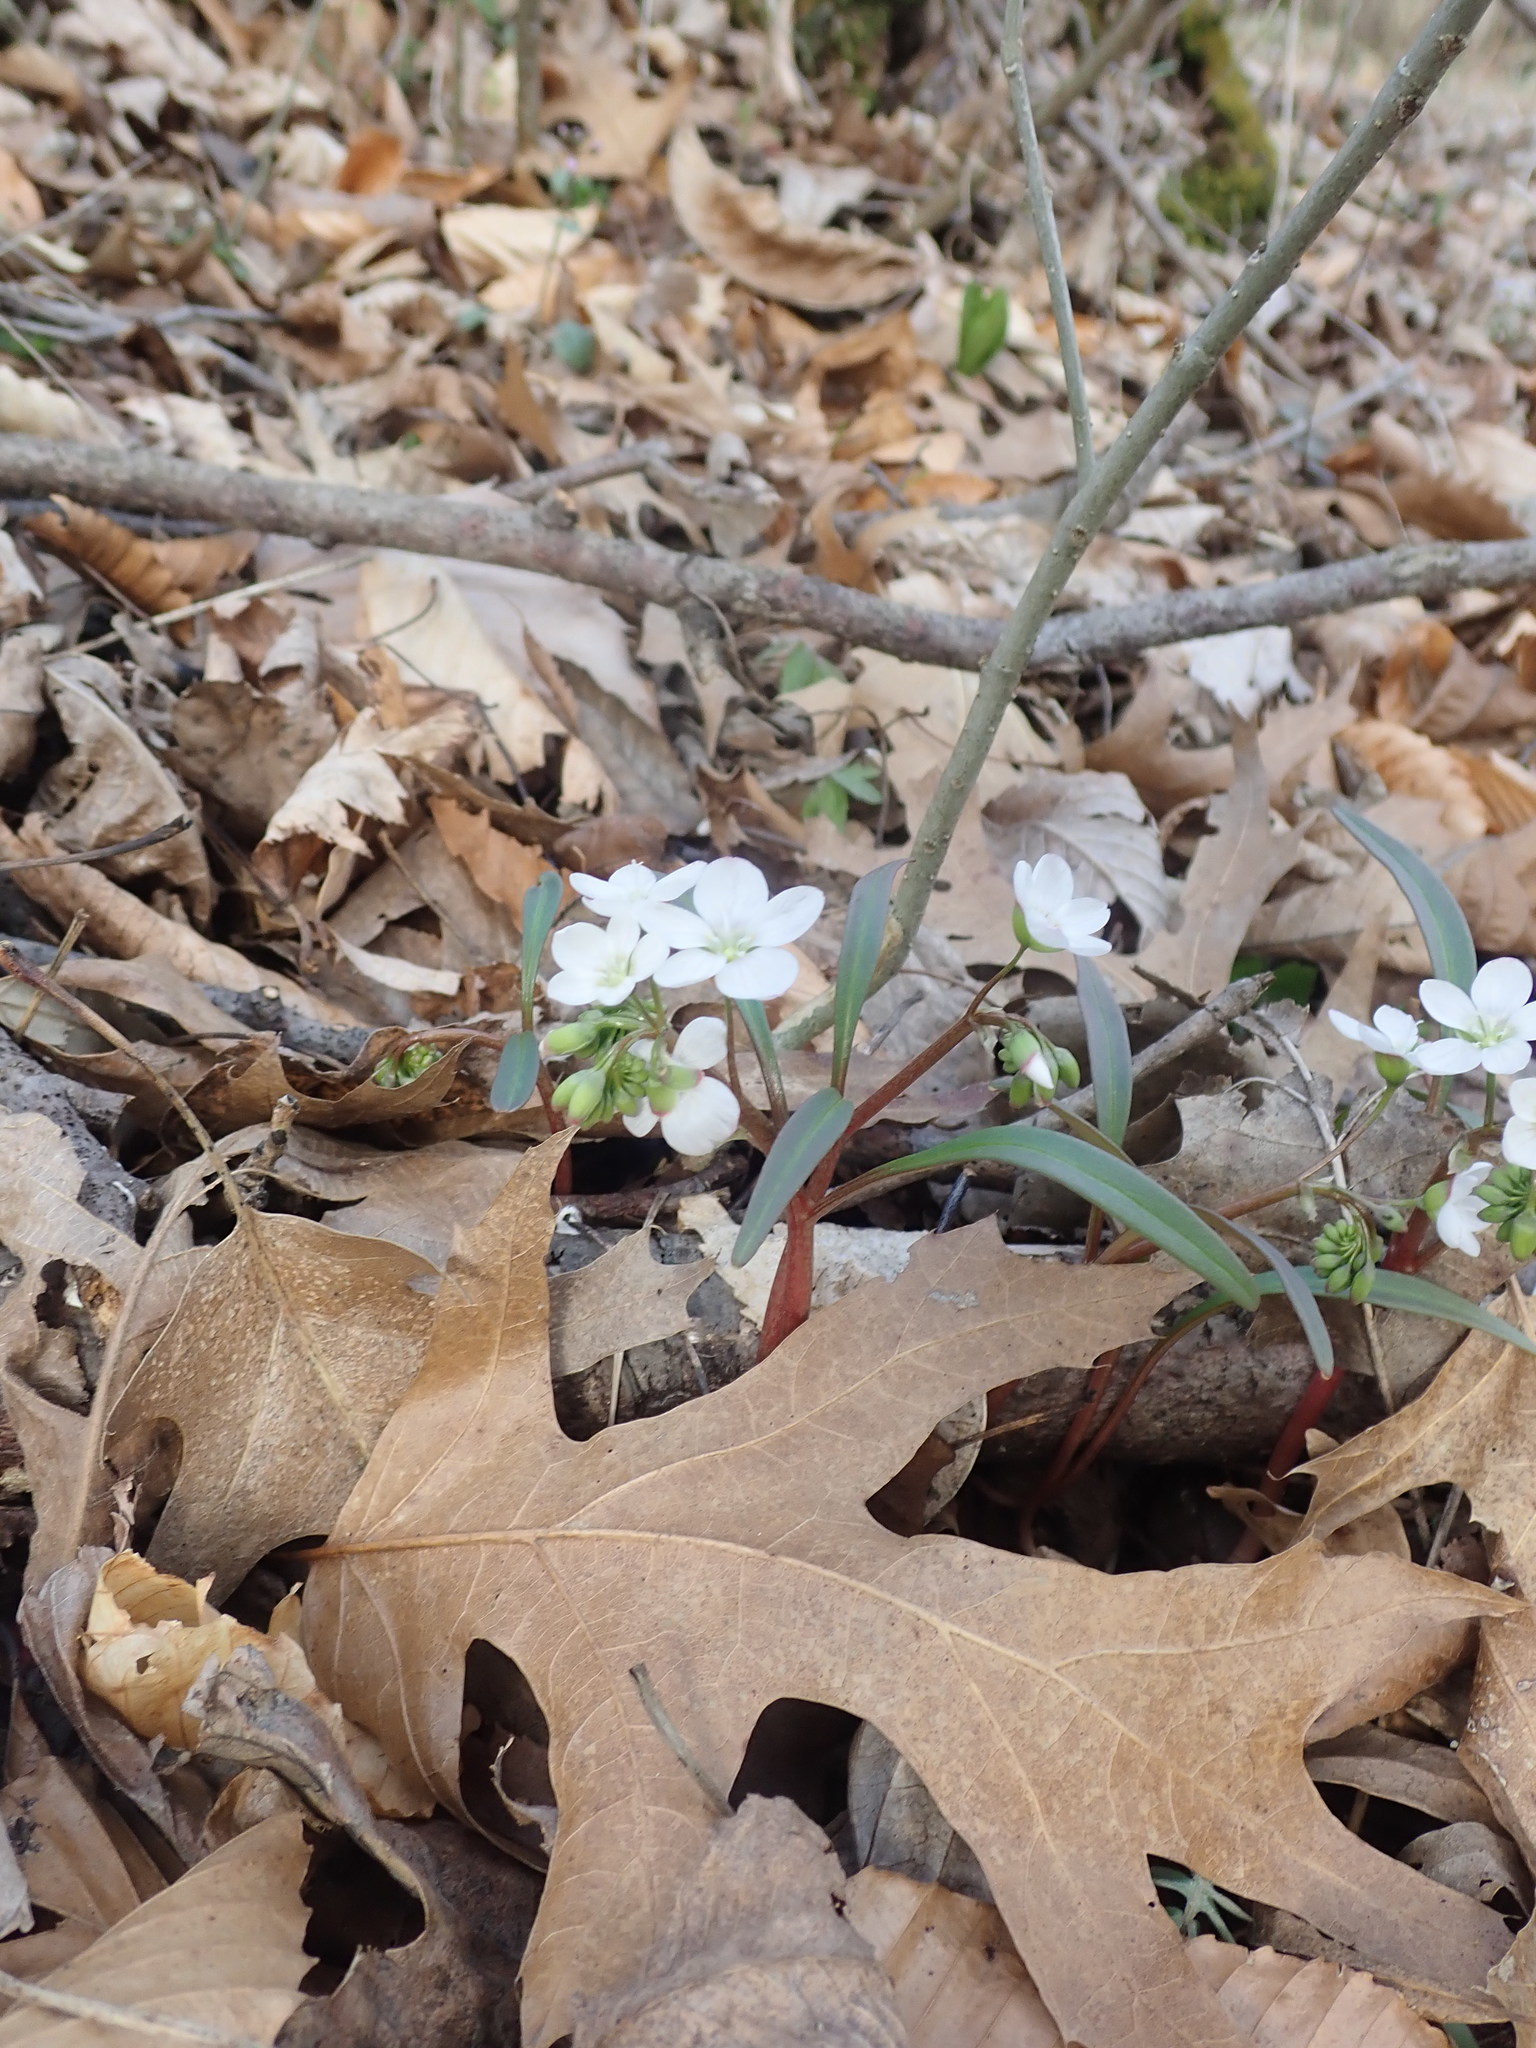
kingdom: Plantae
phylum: Tracheophyta
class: Magnoliopsida
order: Caryophyllales
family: Montiaceae
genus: Claytonia
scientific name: Claytonia virginica
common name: Virginia springbeauty
